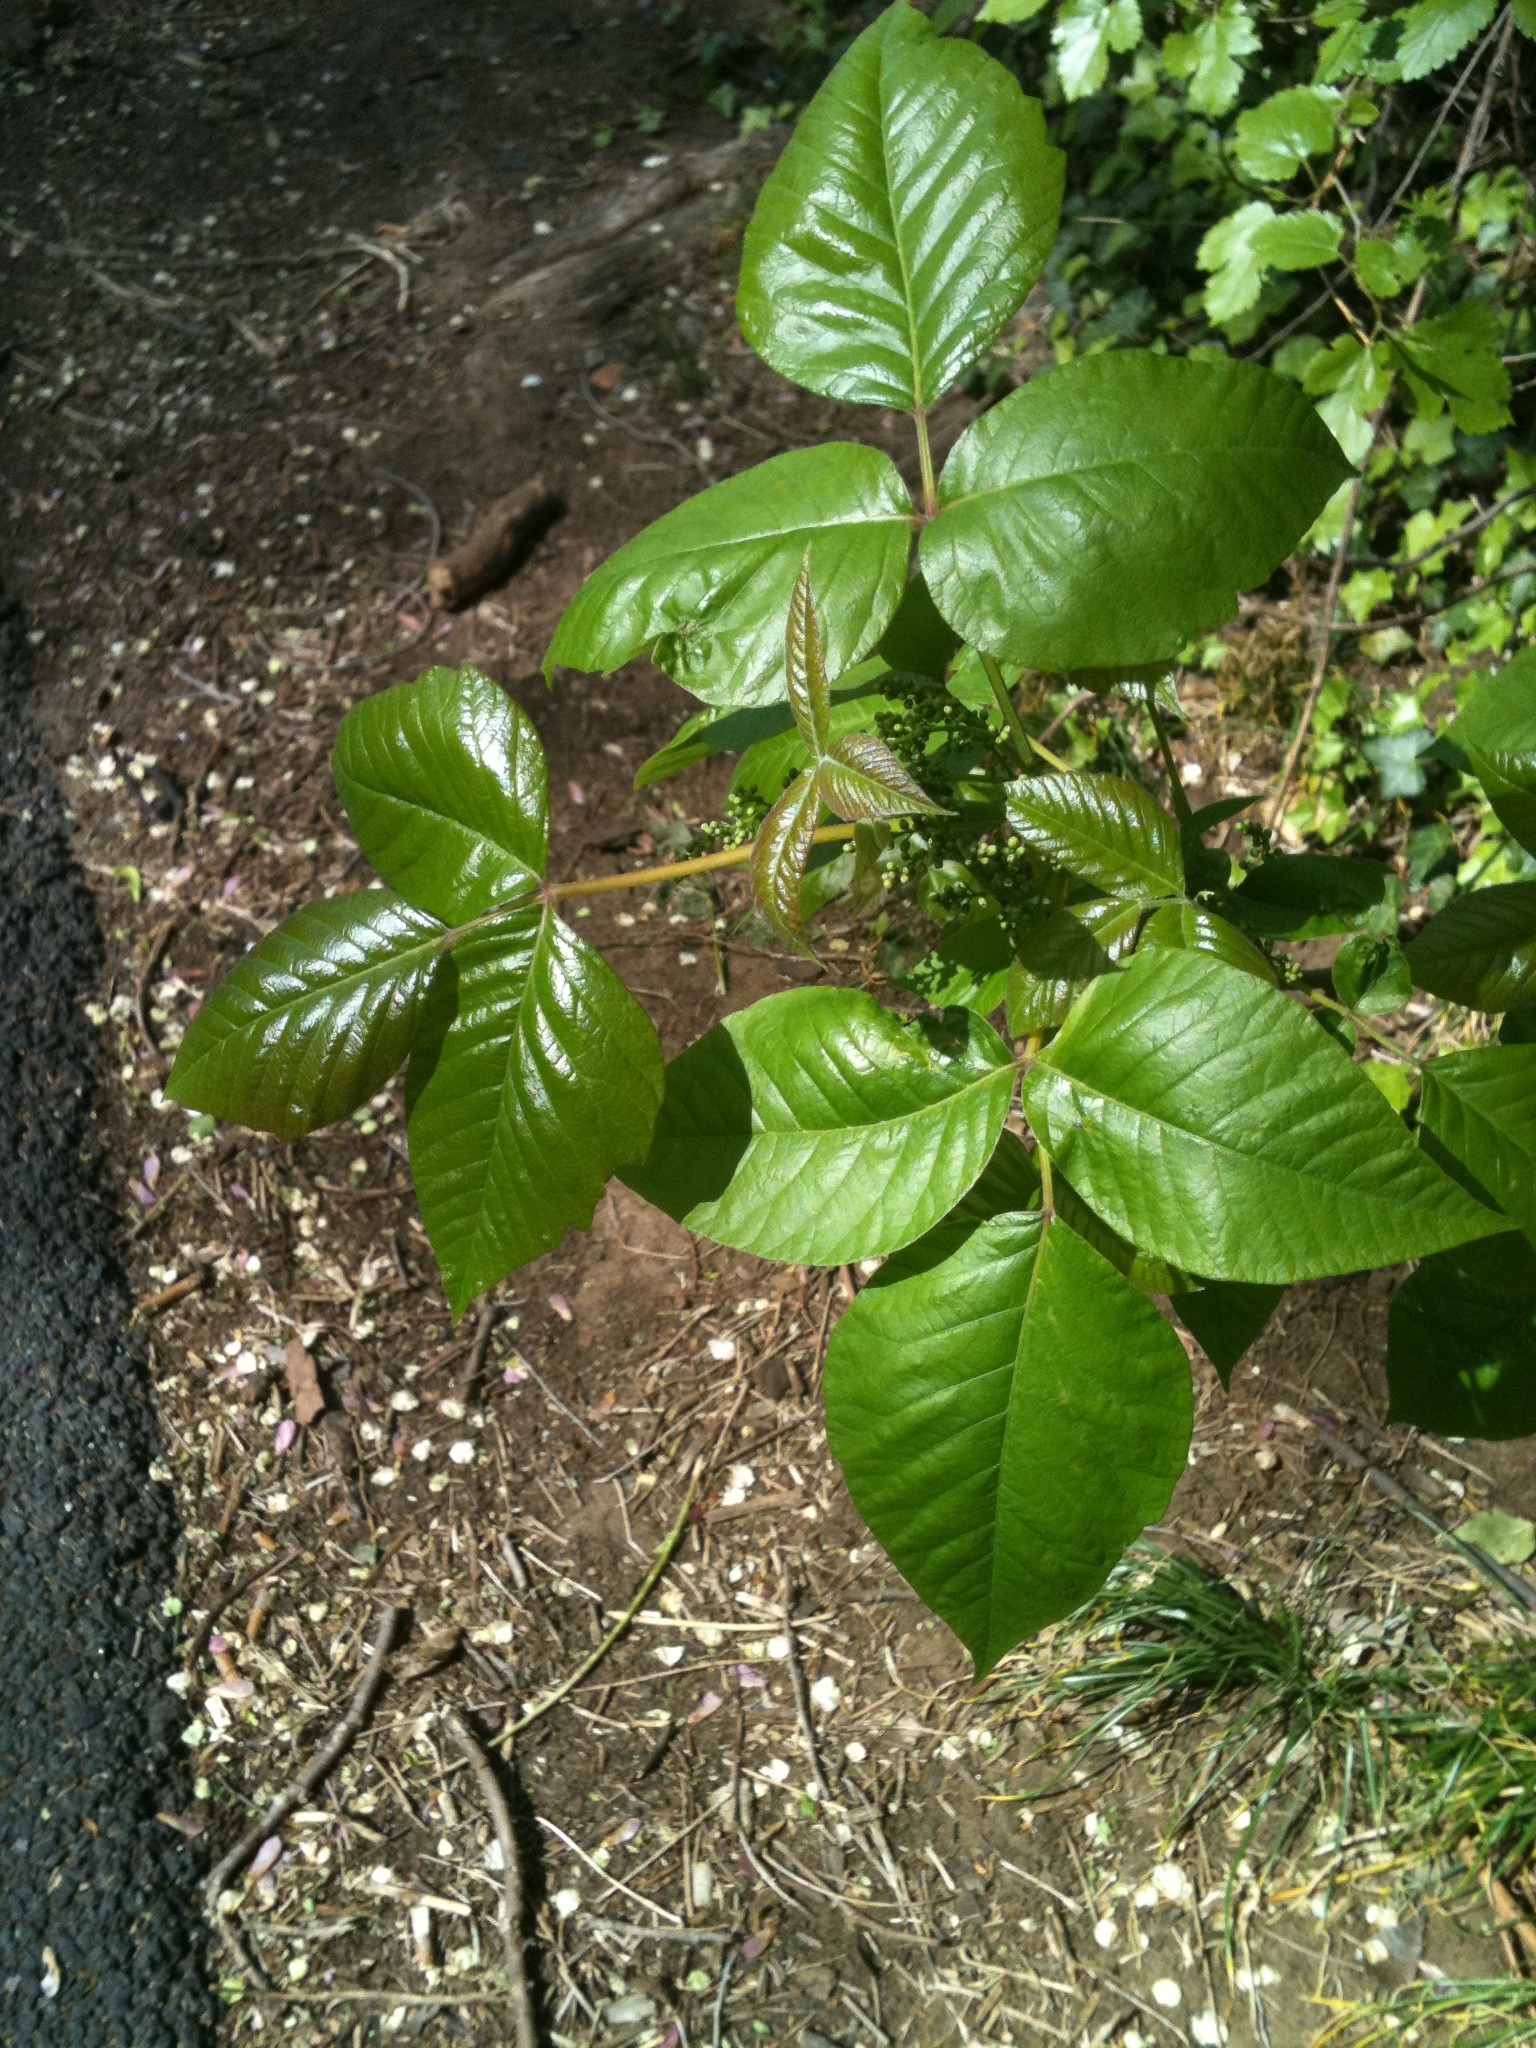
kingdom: Plantae
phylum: Tracheophyta
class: Magnoliopsida
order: Sapindales
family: Anacardiaceae
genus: Toxicodendron
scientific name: Toxicodendron radicans
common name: Poison ivy
